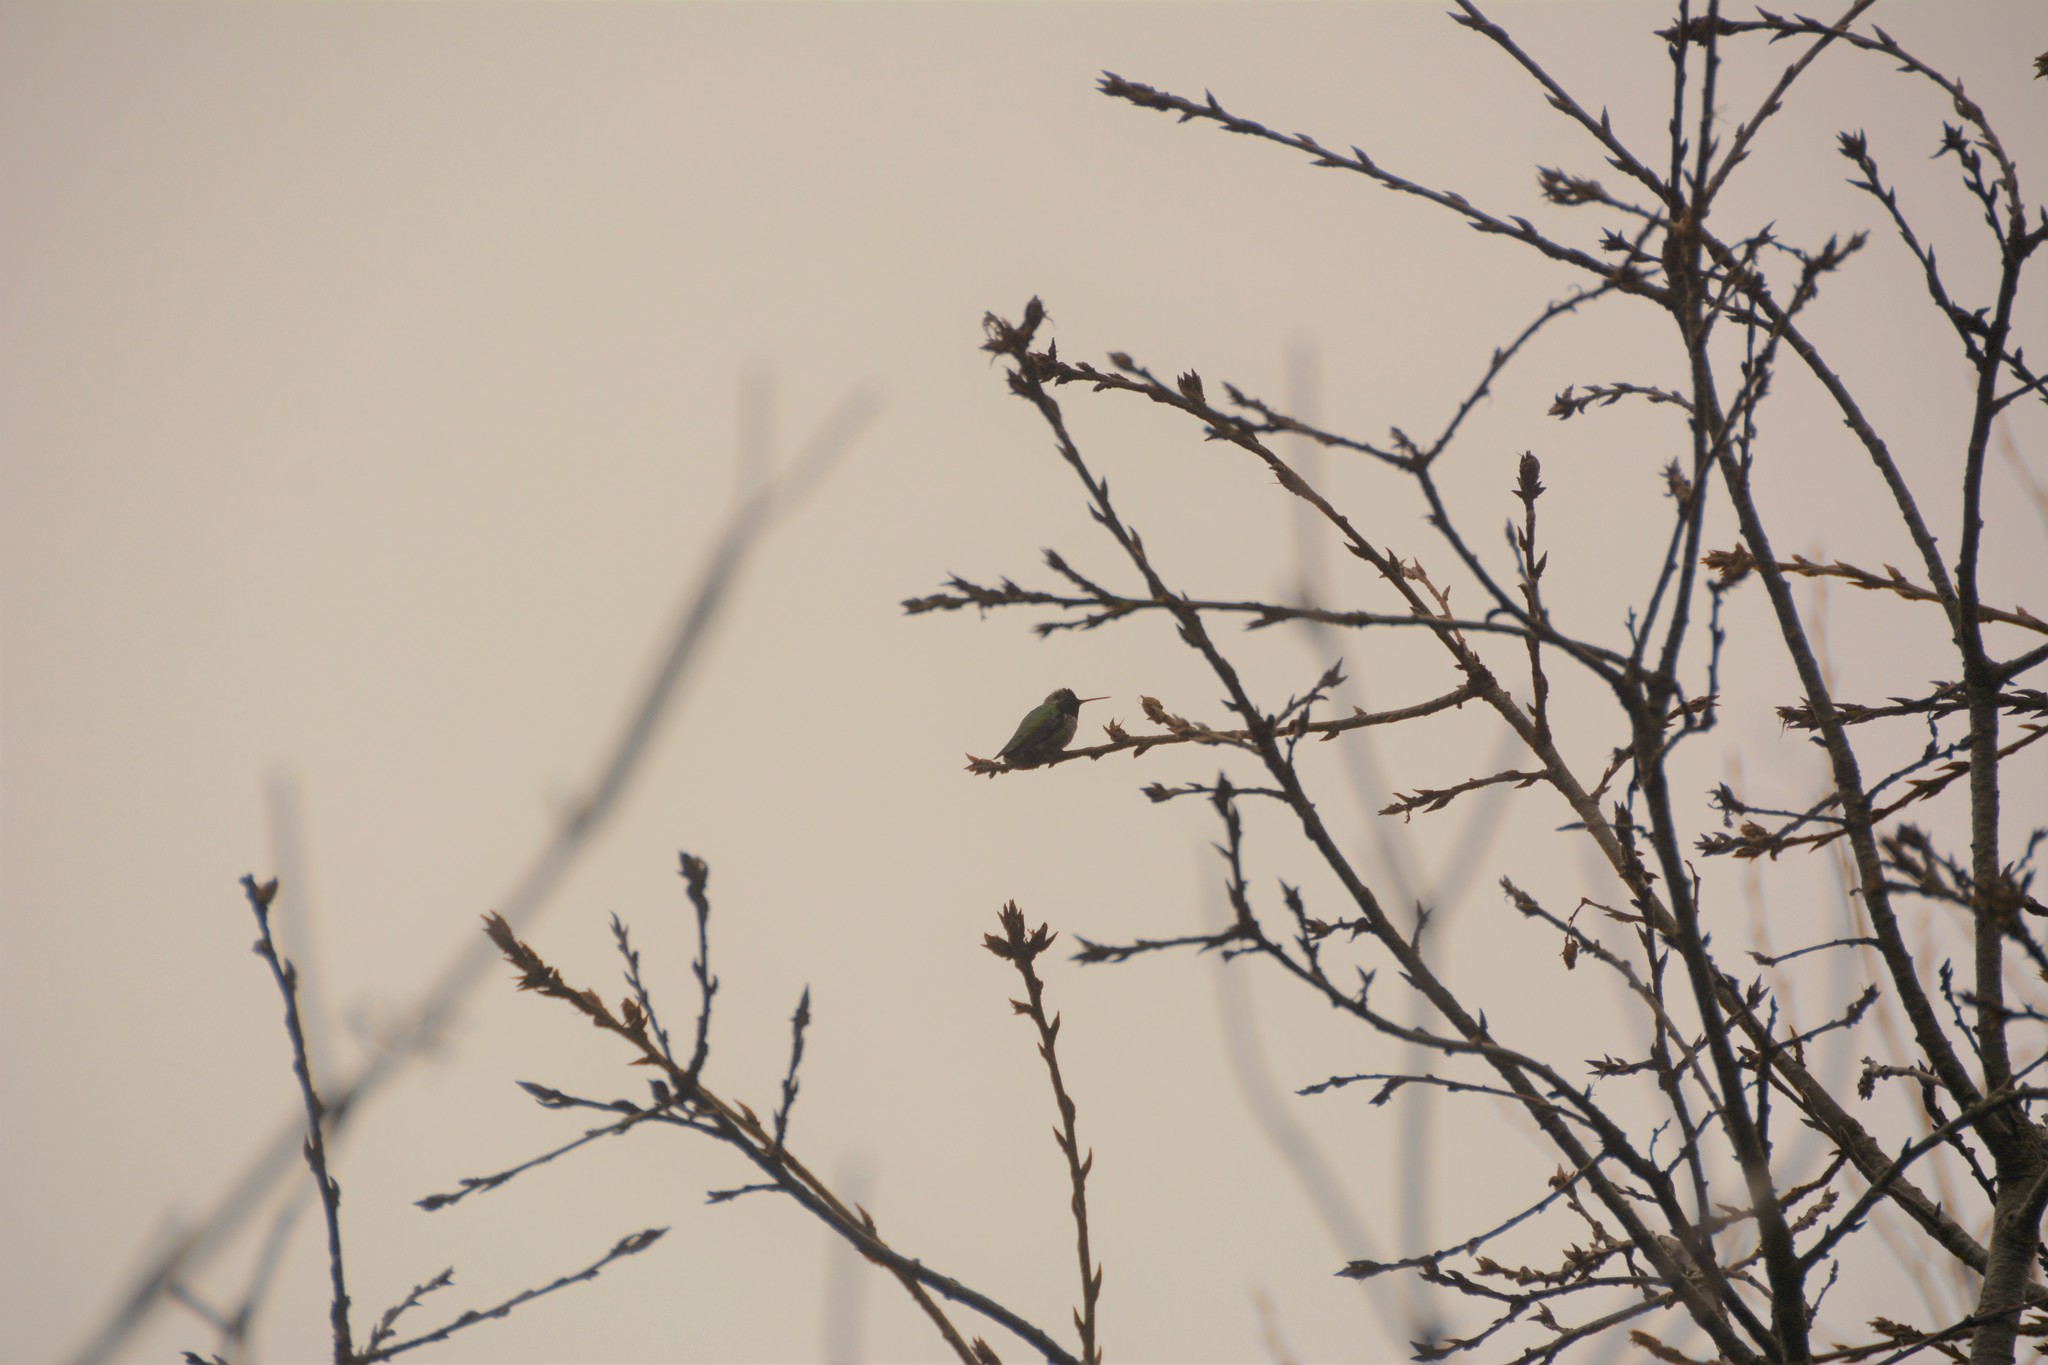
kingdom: Animalia
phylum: Chordata
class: Aves
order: Apodiformes
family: Trochilidae
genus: Calypte
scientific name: Calypte anna
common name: Anna's hummingbird
